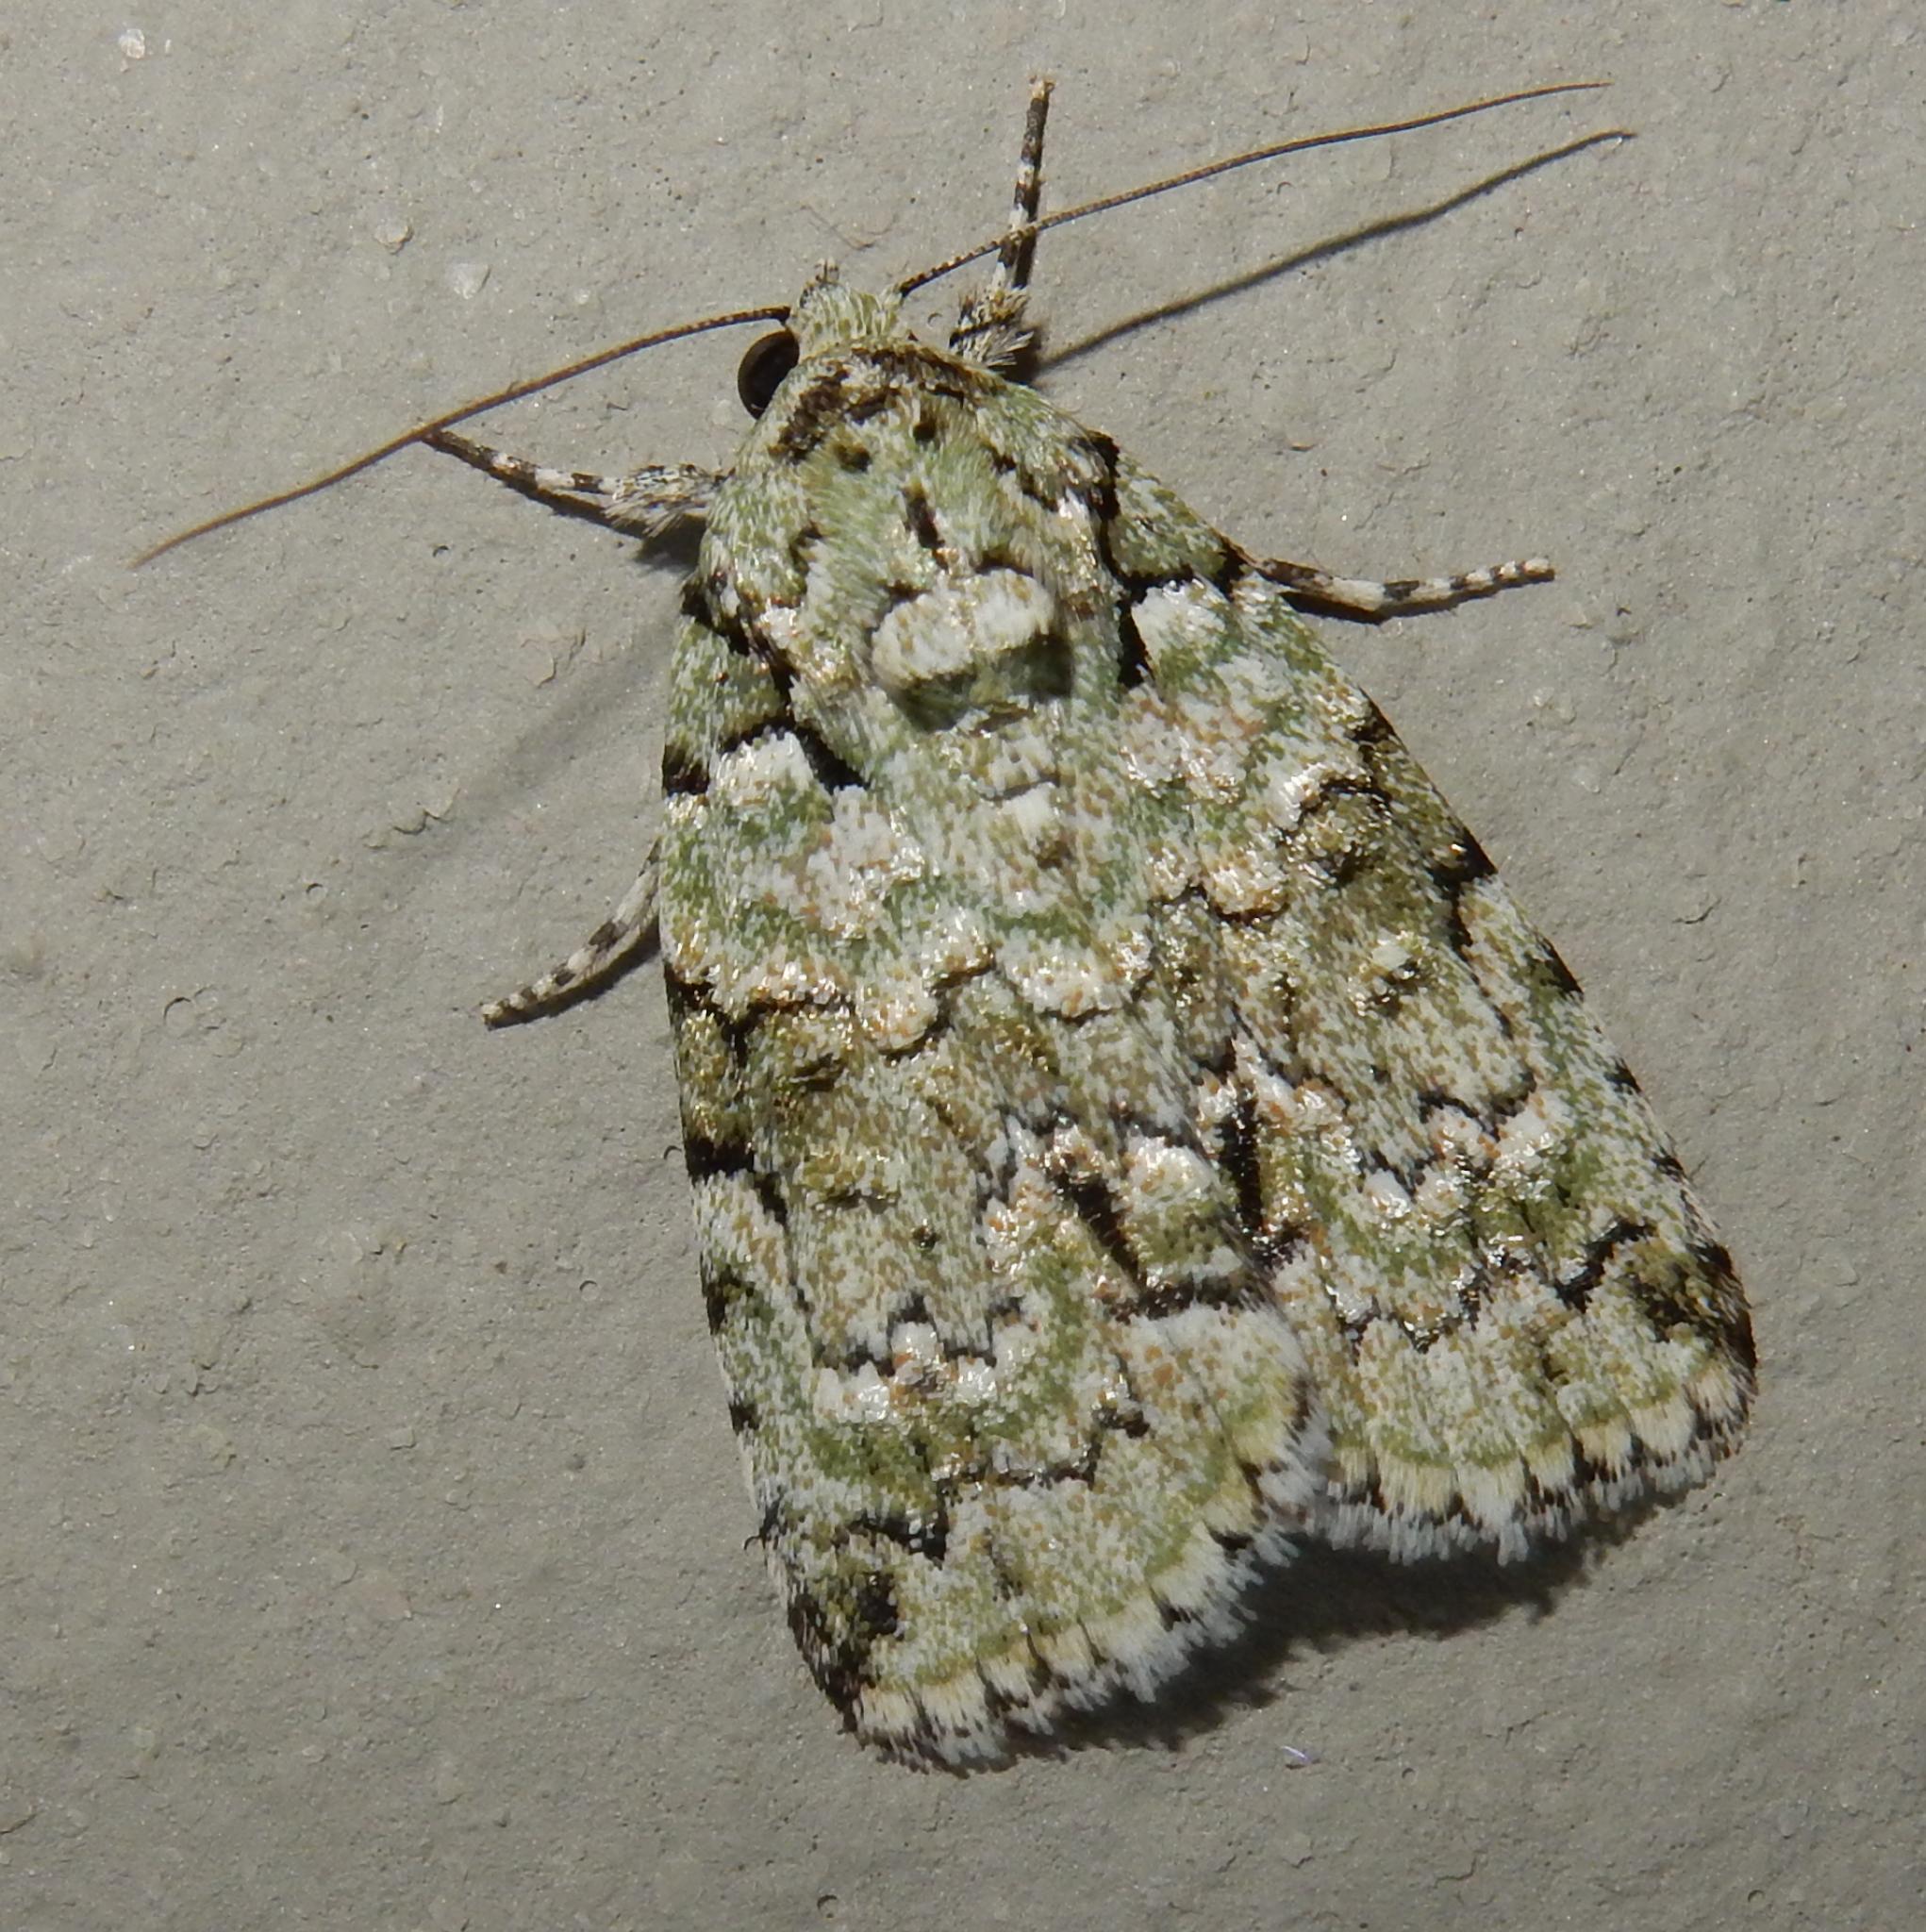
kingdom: Animalia
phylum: Arthropoda
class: Insecta
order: Lepidoptera
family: Nolidae
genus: Blenina
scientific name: Blenina squamifera
